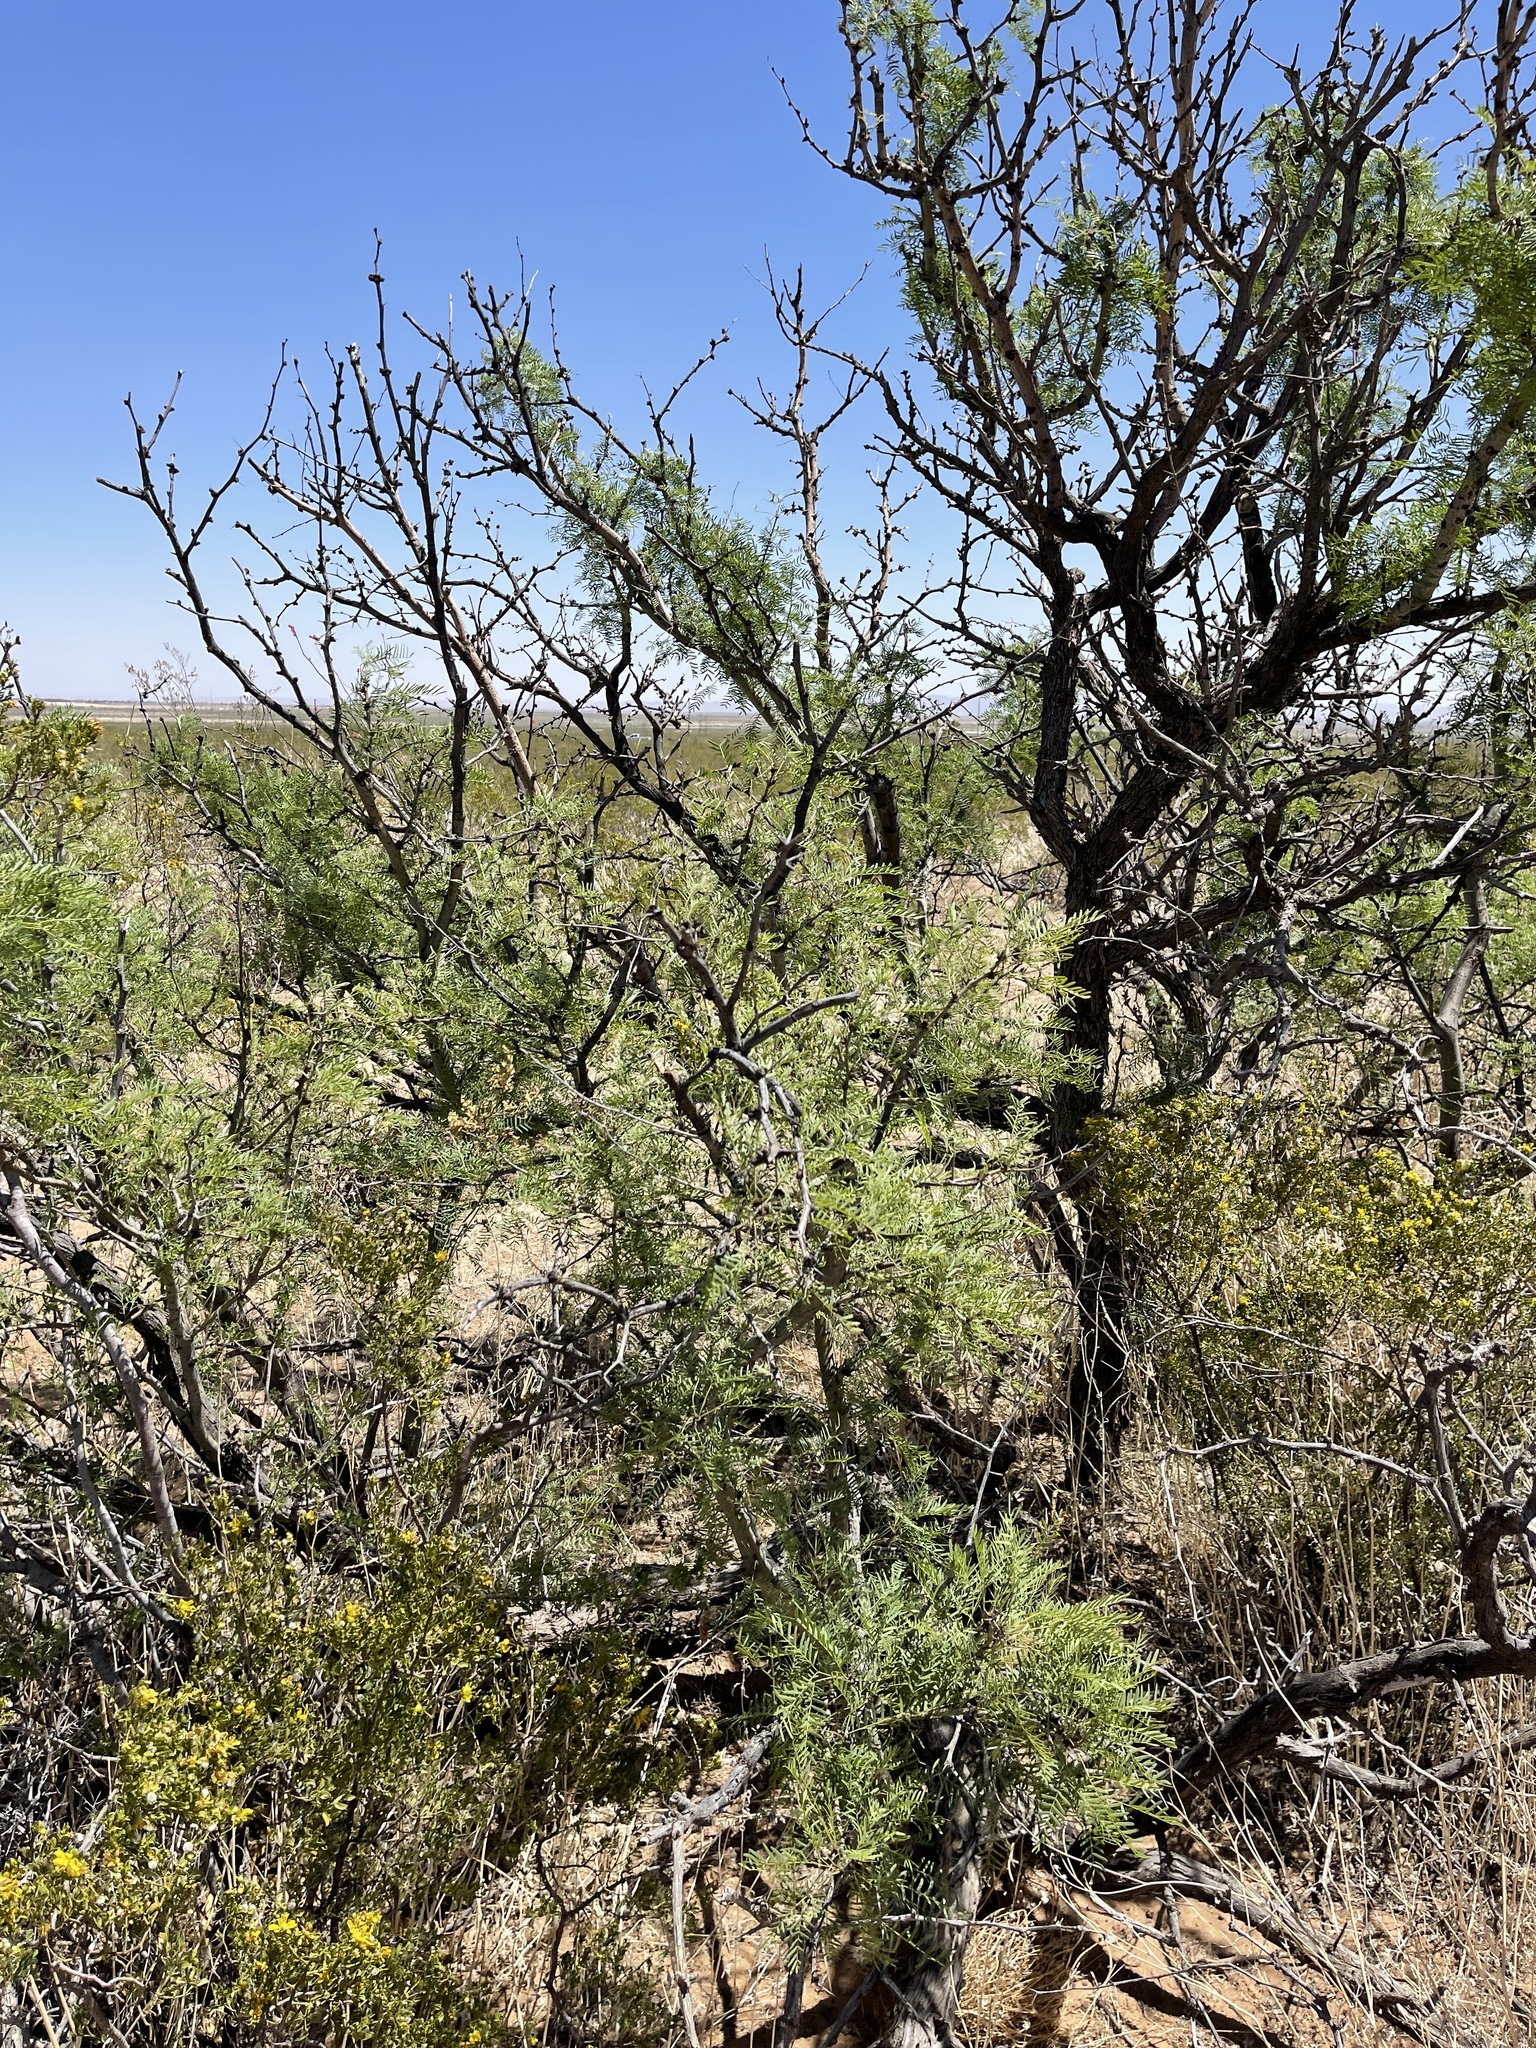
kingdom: Plantae
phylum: Tracheophyta
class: Magnoliopsida
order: Fabales
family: Fabaceae
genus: Prosopis
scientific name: Prosopis pubescens
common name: Screw-bean
